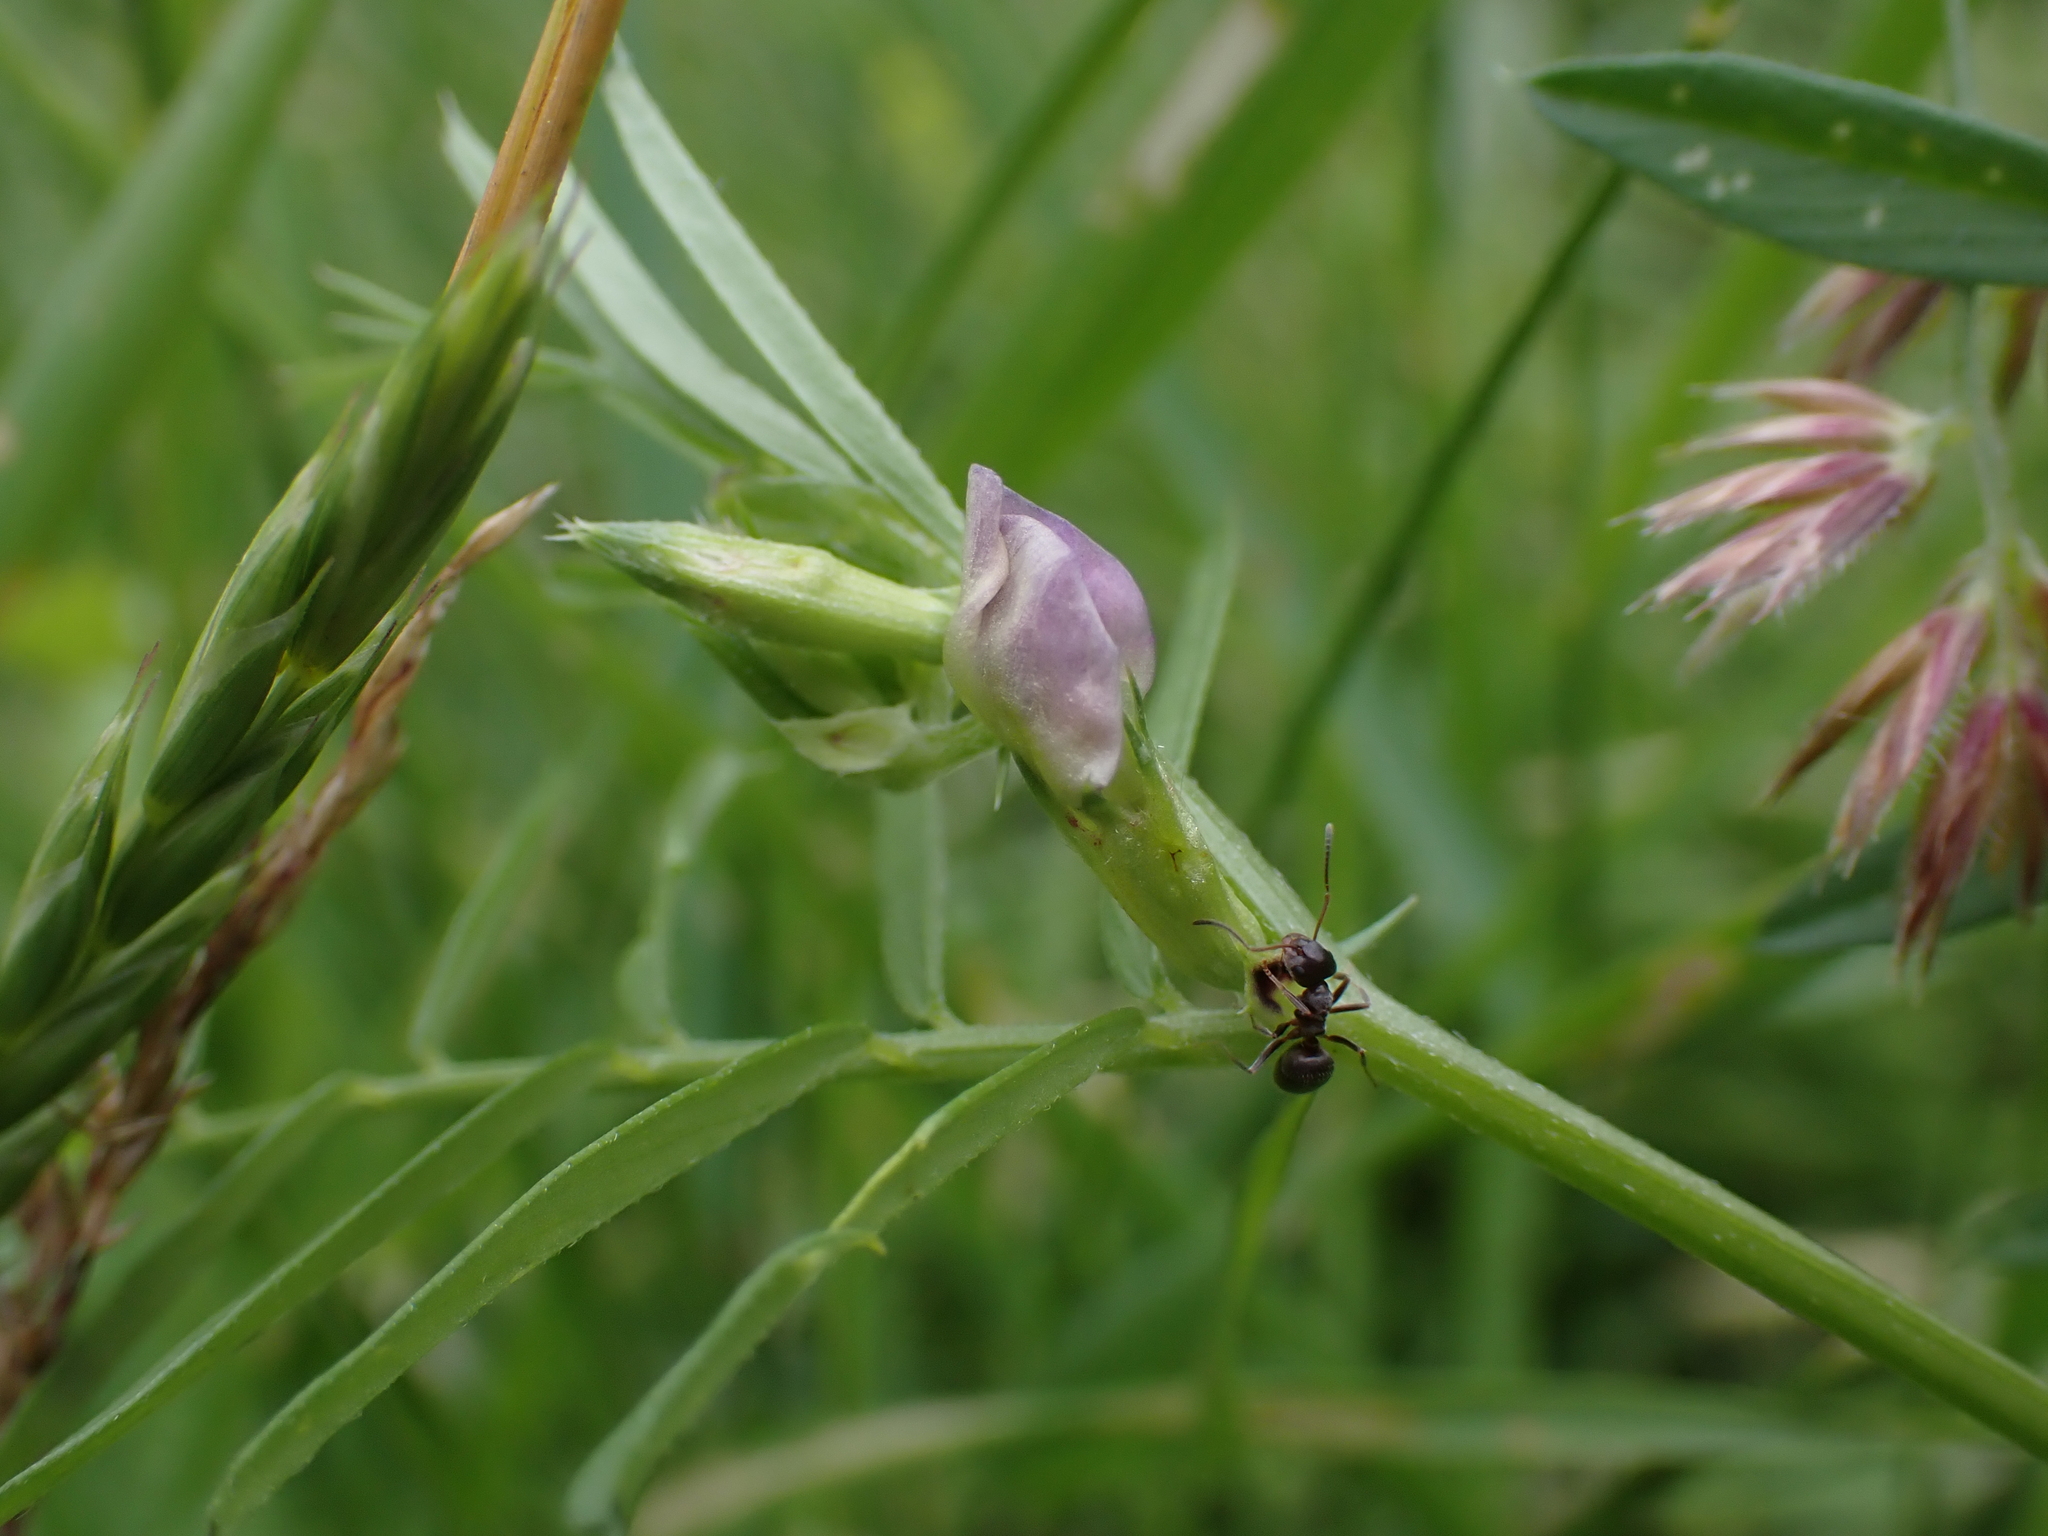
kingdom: Plantae
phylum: Tracheophyta
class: Magnoliopsida
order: Fabales
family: Fabaceae
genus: Vicia
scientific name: Vicia sativa
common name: Garden vetch
